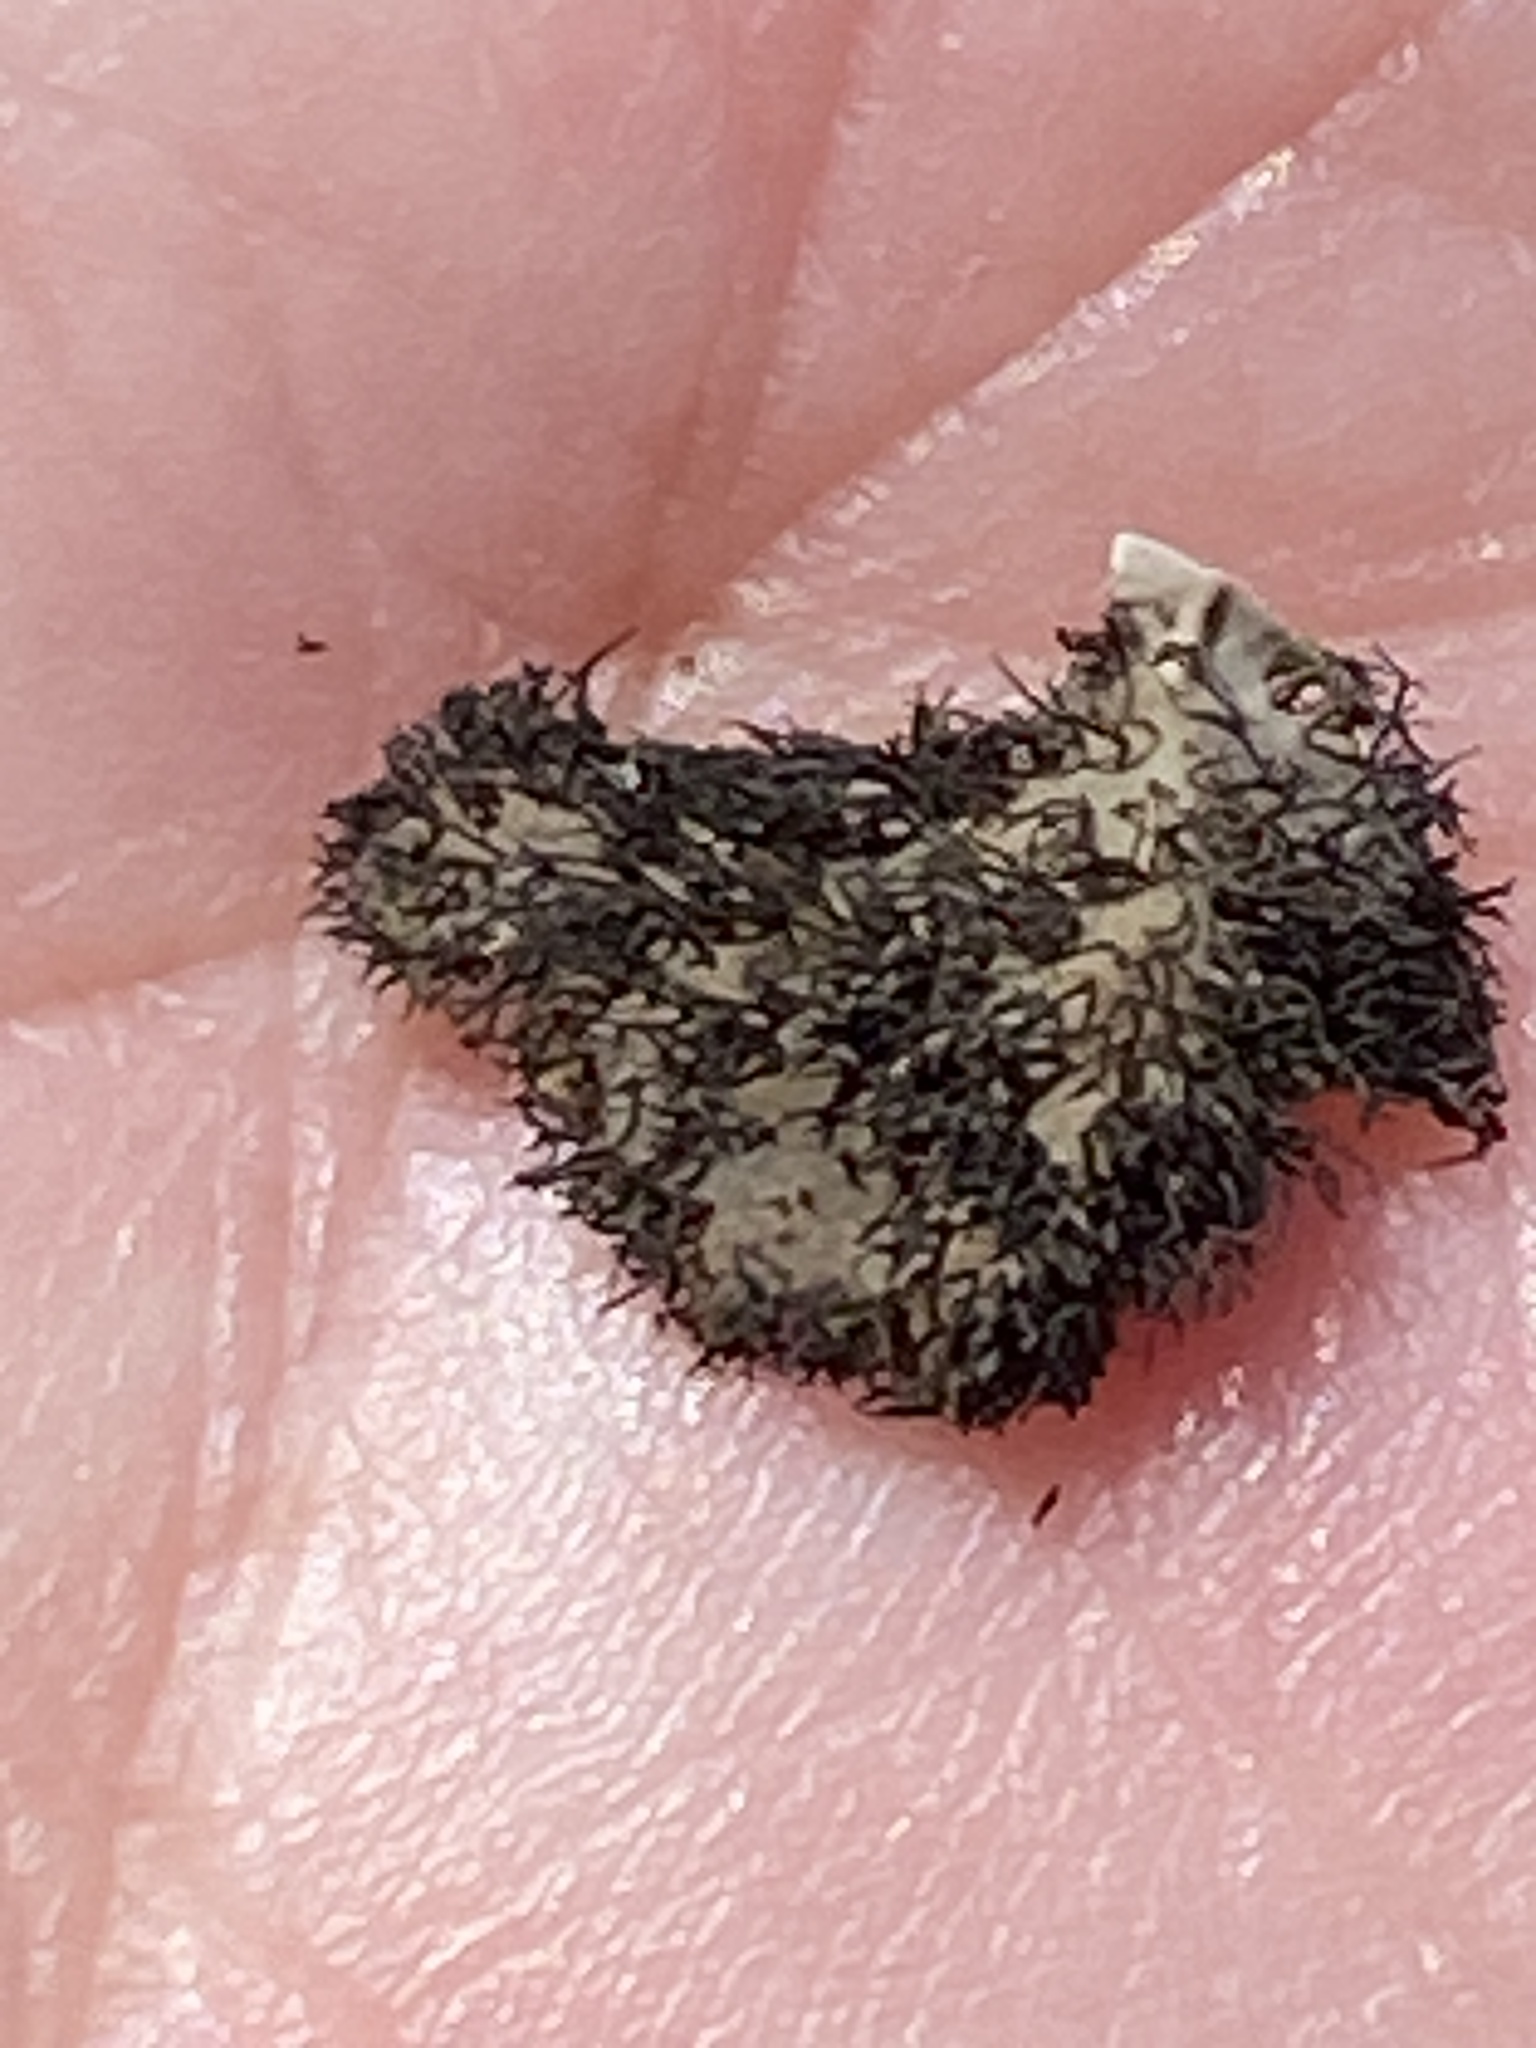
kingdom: Fungi
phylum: Ascomycota
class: Lecanoromycetes
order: Umbilicariales
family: Umbilicariaceae
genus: Umbilicaria
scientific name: Umbilicaria cylindrica
